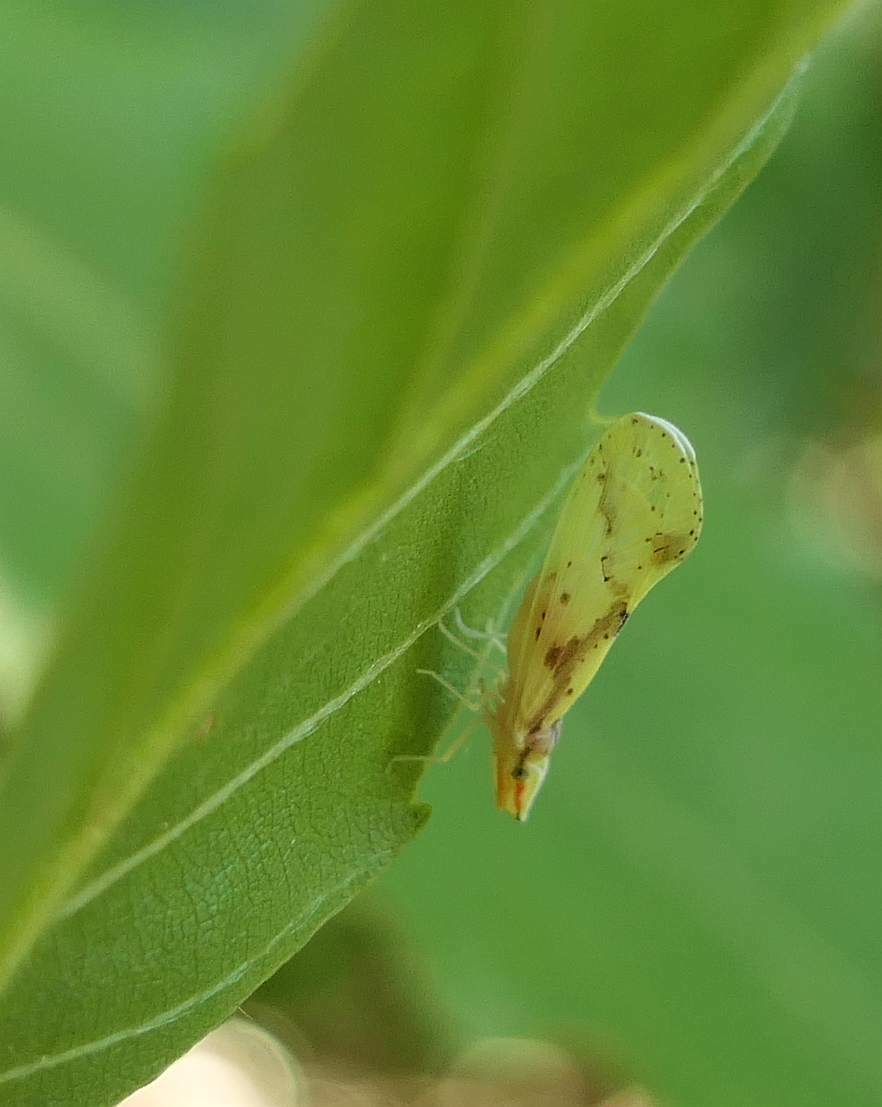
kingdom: Animalia
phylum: Arthropoda
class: Insecta
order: Hemiptera
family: Derbidae
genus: Otiocerus
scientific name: Otiocerus wolfii
